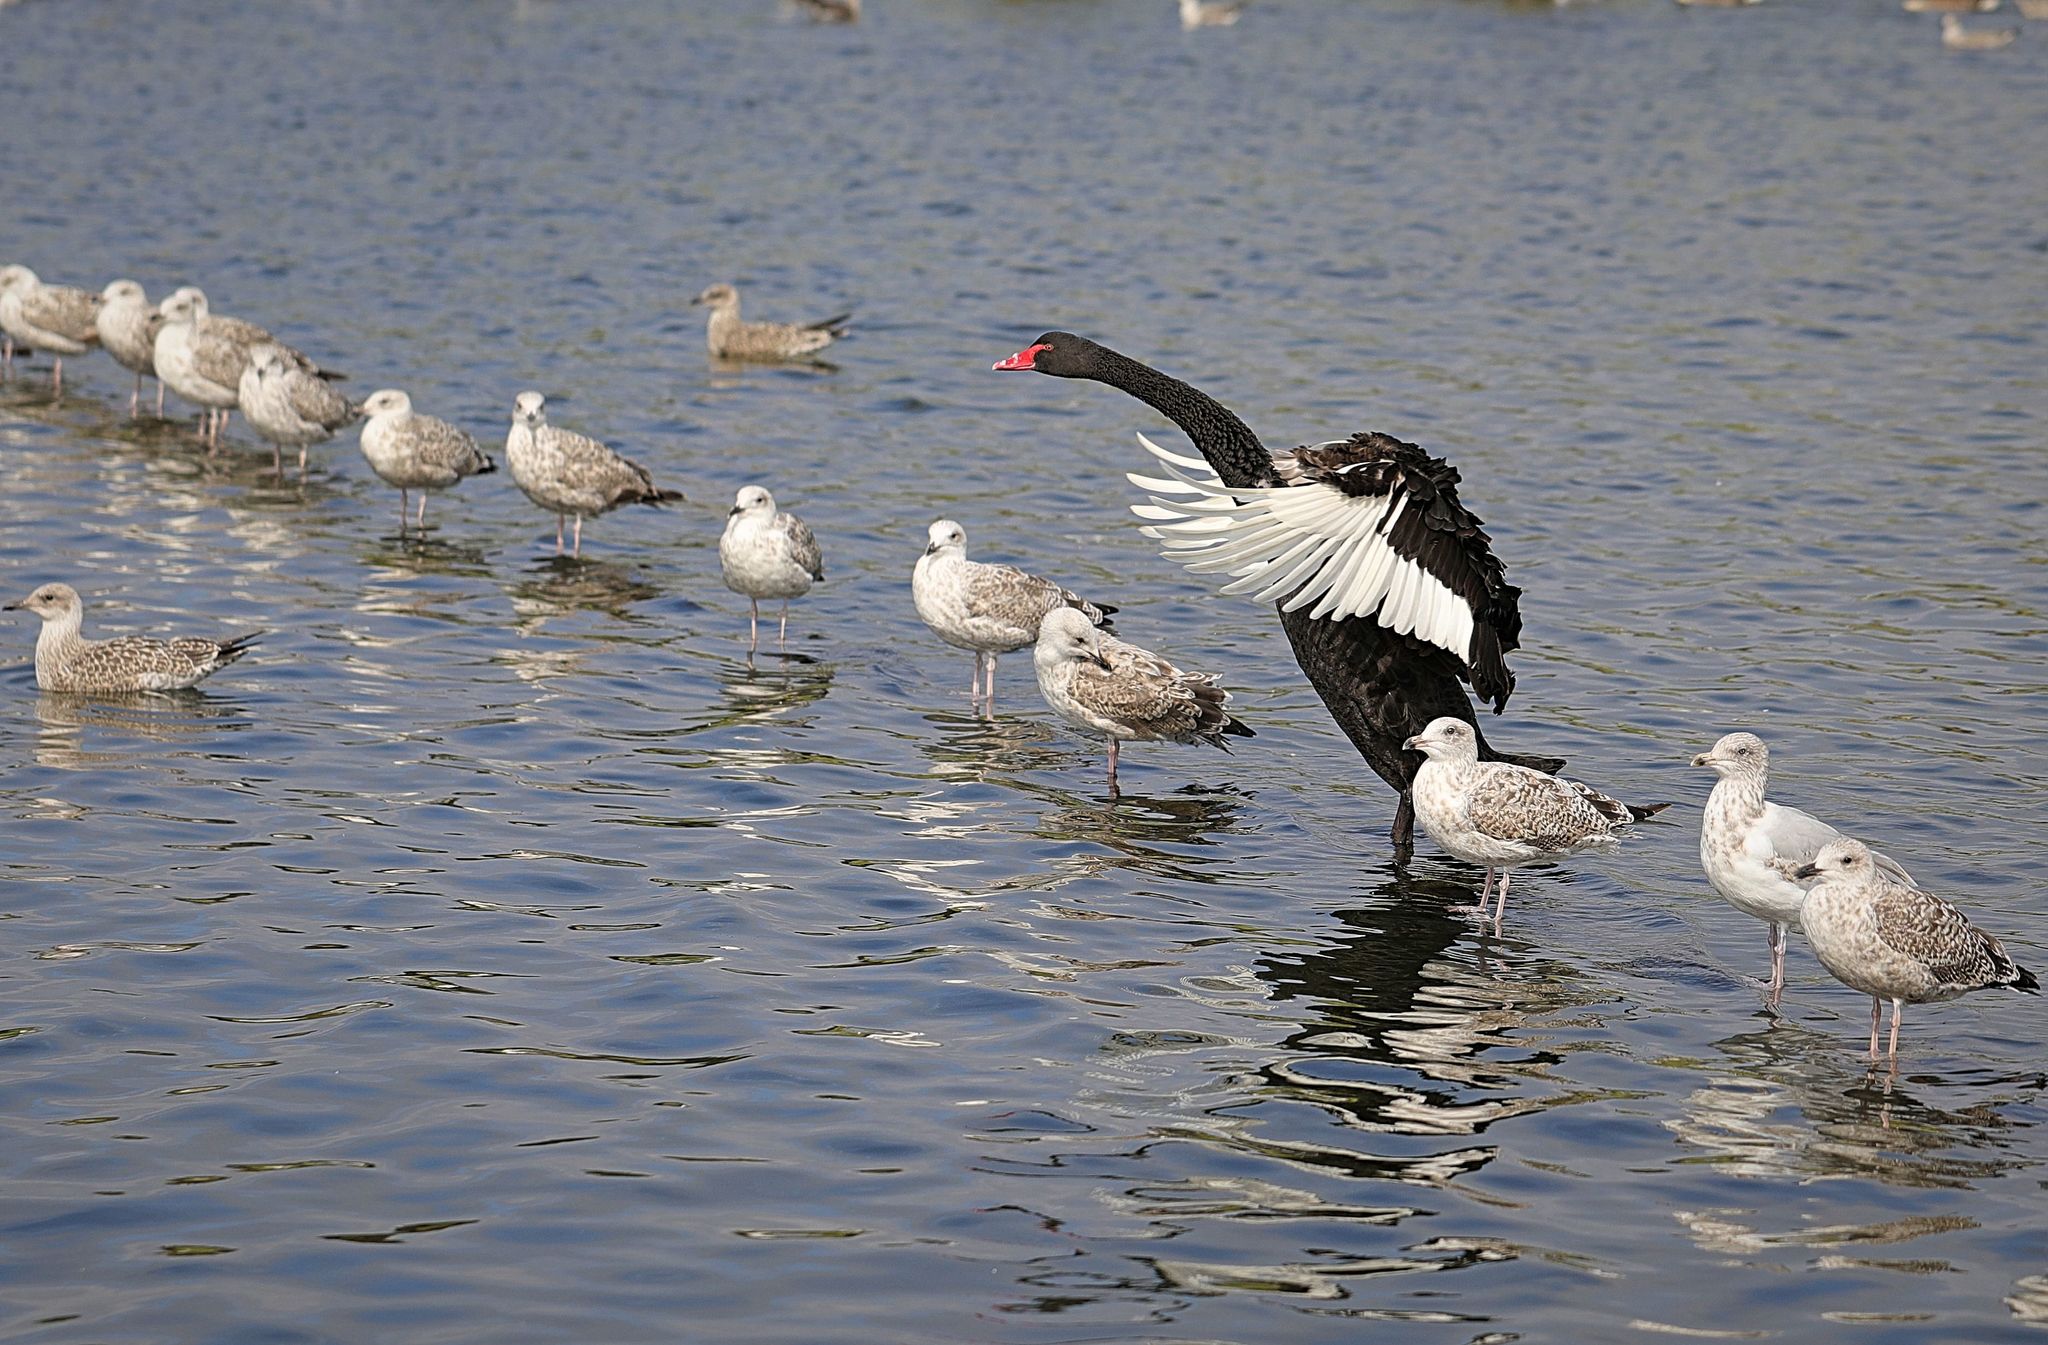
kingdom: Animalia
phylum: Chordata
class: Aves
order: Anseriformes
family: Anatidae
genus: Cygnus
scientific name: Cygnus atratus
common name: Black swan
